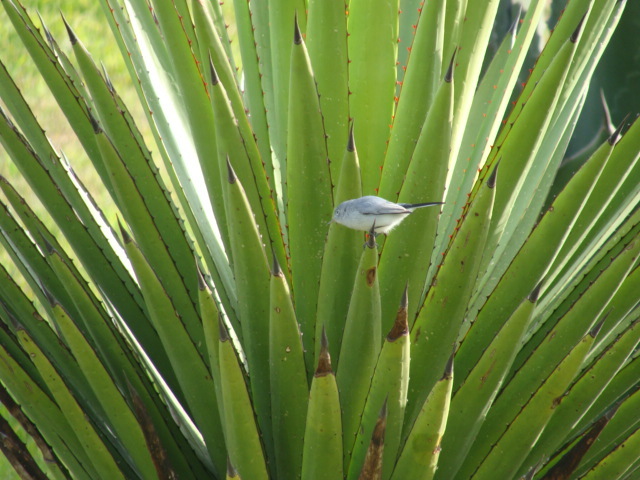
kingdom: Animalia
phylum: Chordata
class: Aves
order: Passeriformes
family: Polioptilidae
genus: Polioptila
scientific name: Polioptila caerulea
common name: Blue-gray gnatcatcher
